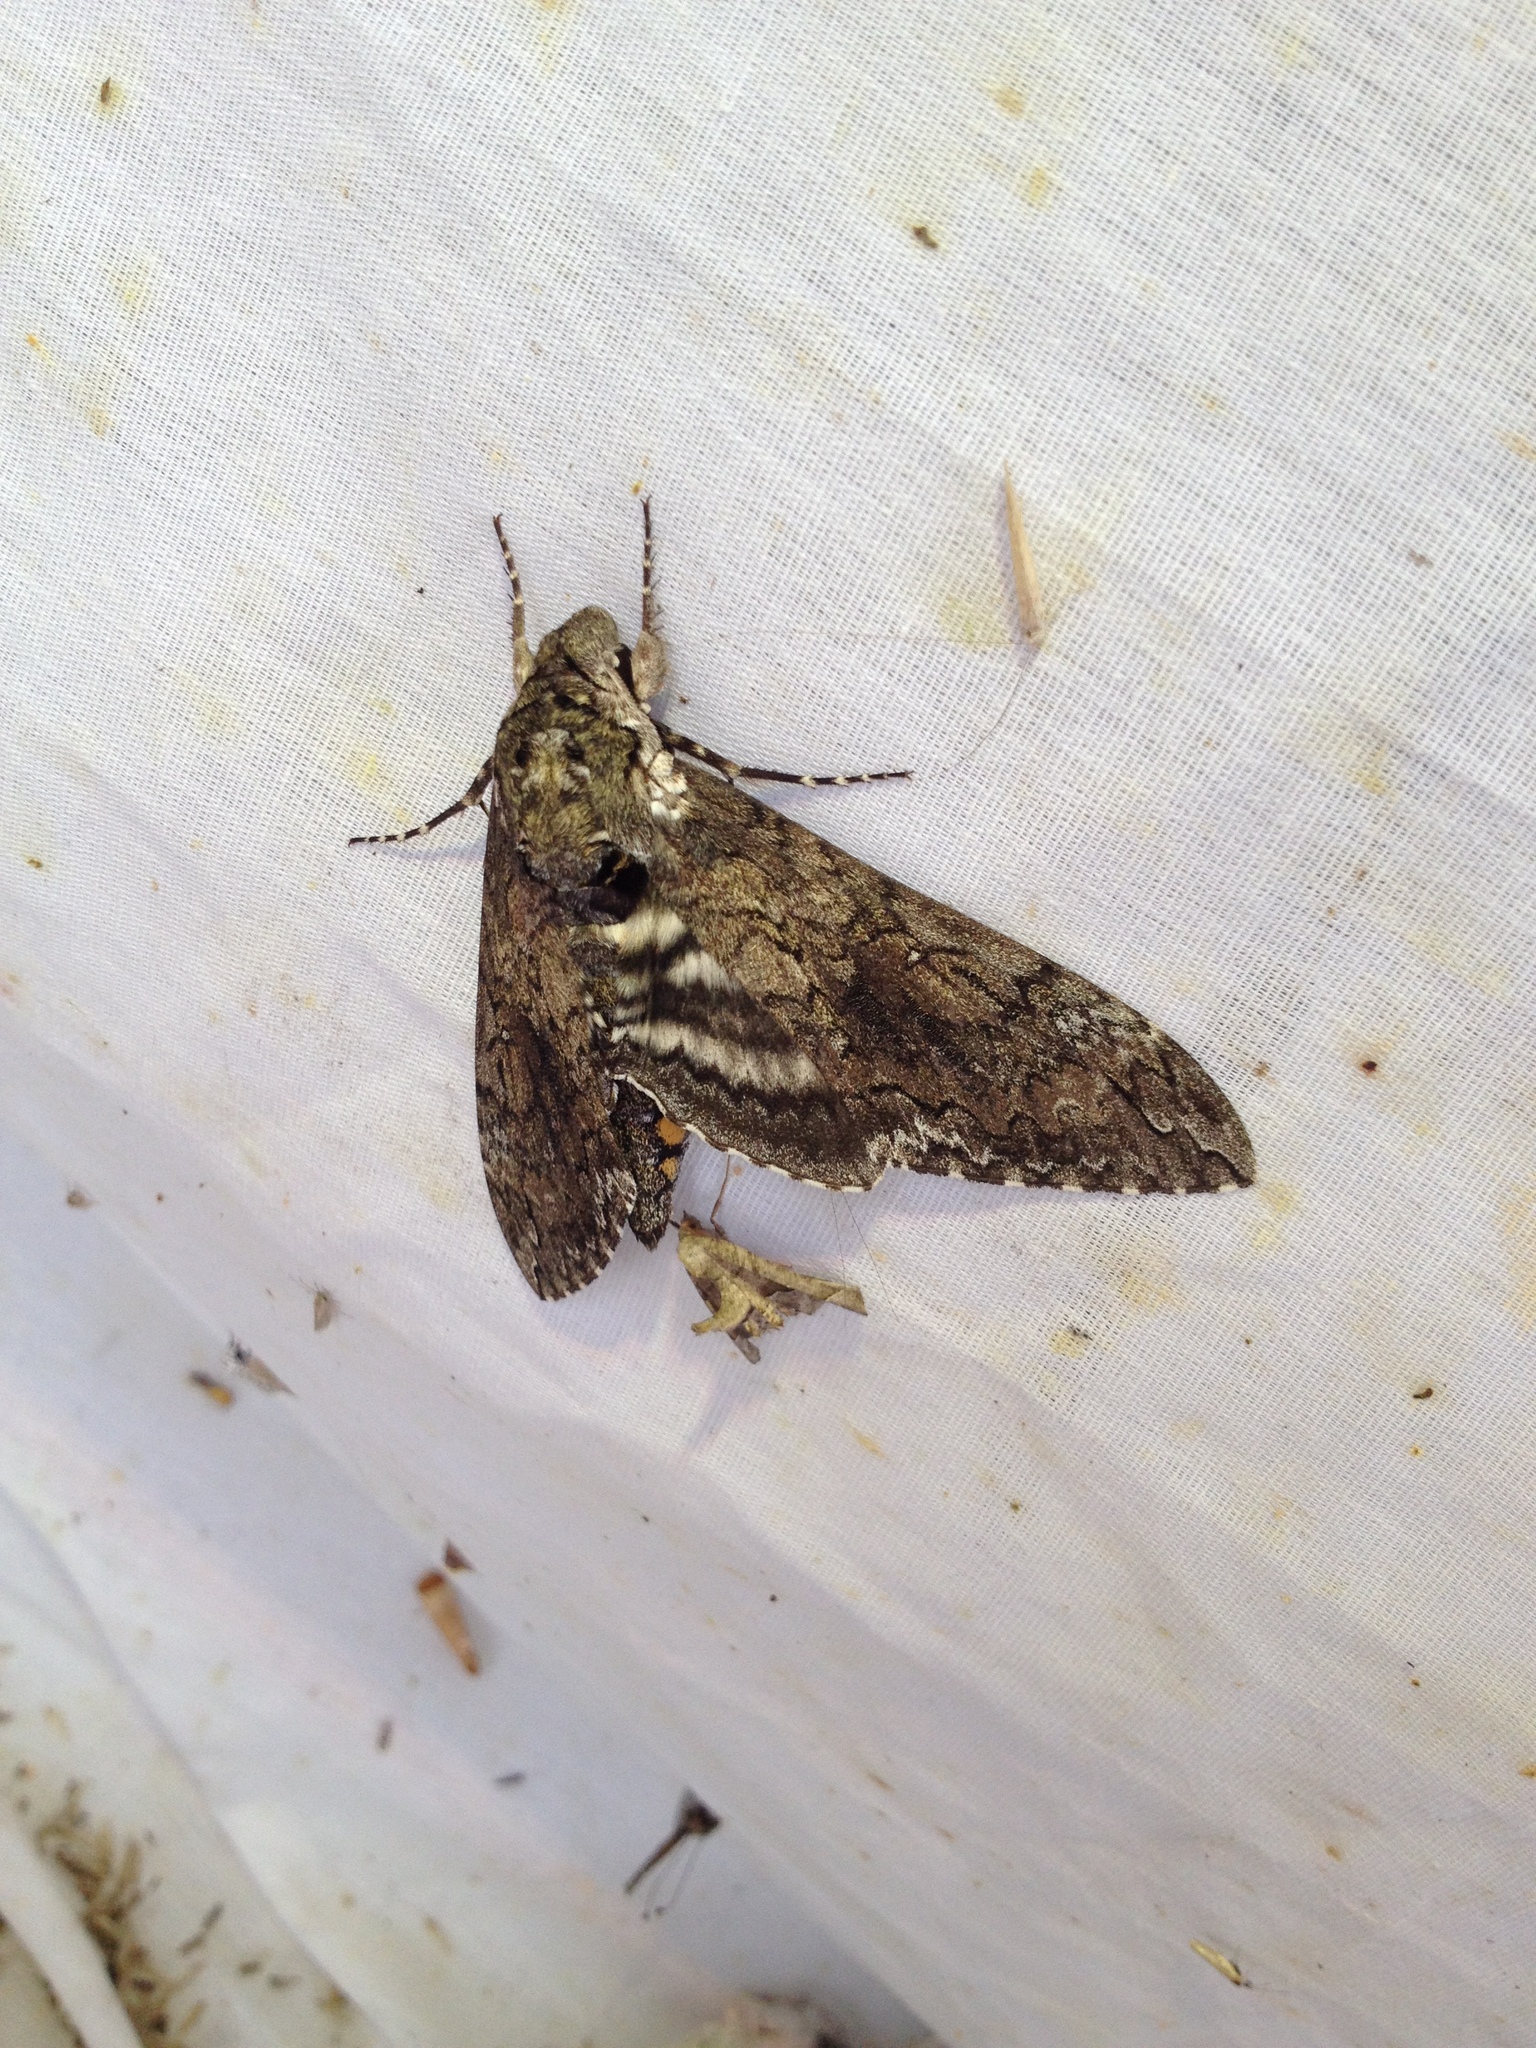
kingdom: Animalia
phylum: Arthropoda
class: Insecta
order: Lepidoptera
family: Sphingidae
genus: Manduca
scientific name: Manduca sexta
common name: Carolina sphinx
